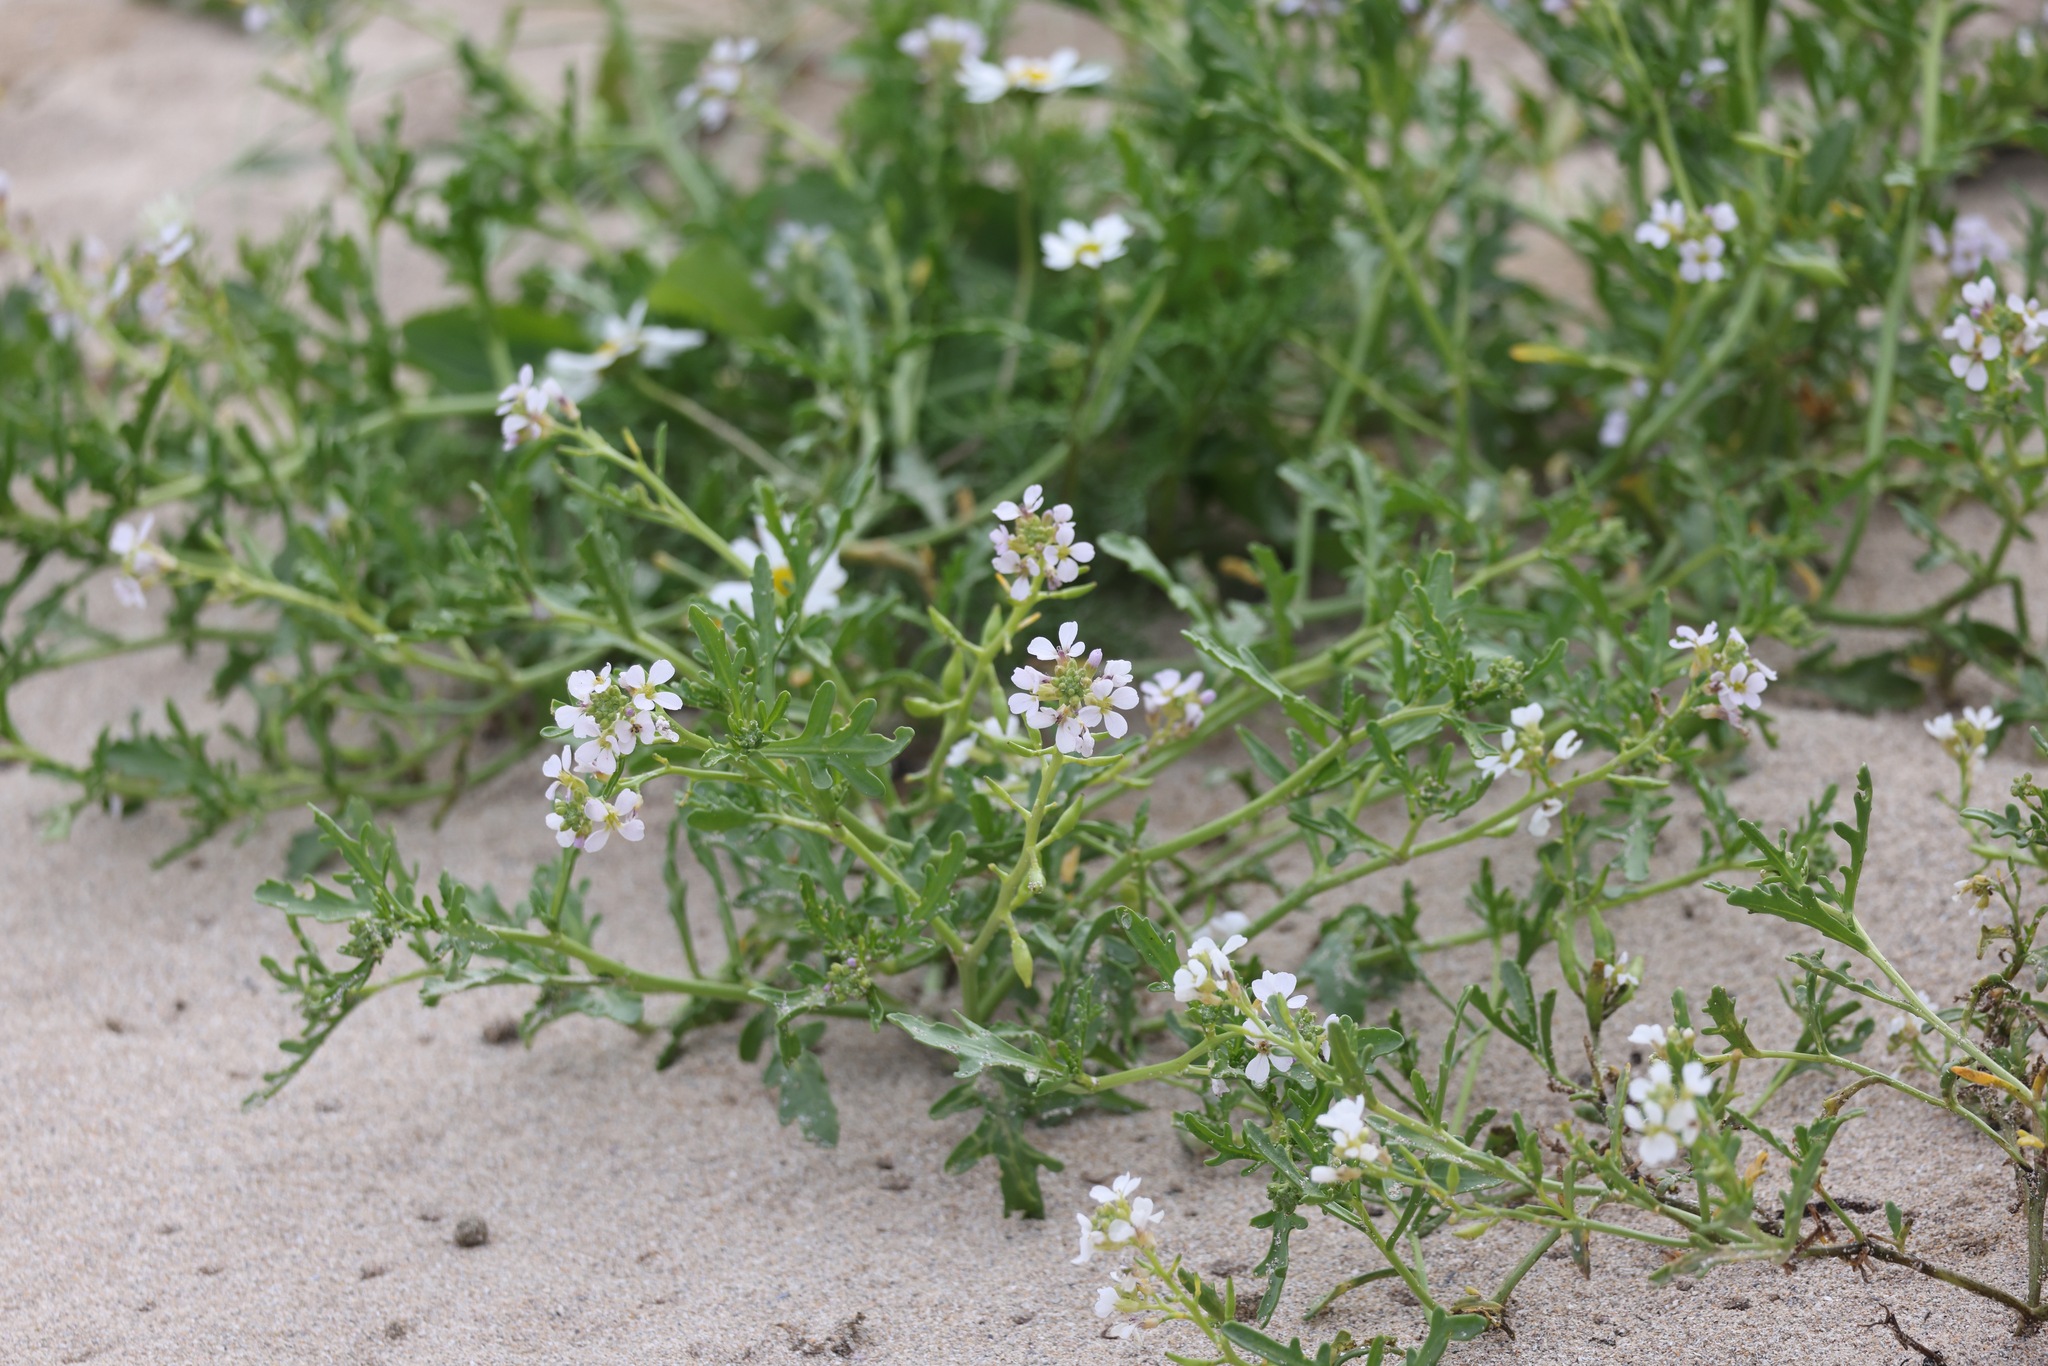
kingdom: Plantae
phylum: Tracheophyta
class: Magnoliopsida
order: Brassicales
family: Brassicaceae
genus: Cakile
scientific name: Cakile maritima
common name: Sea rocket
